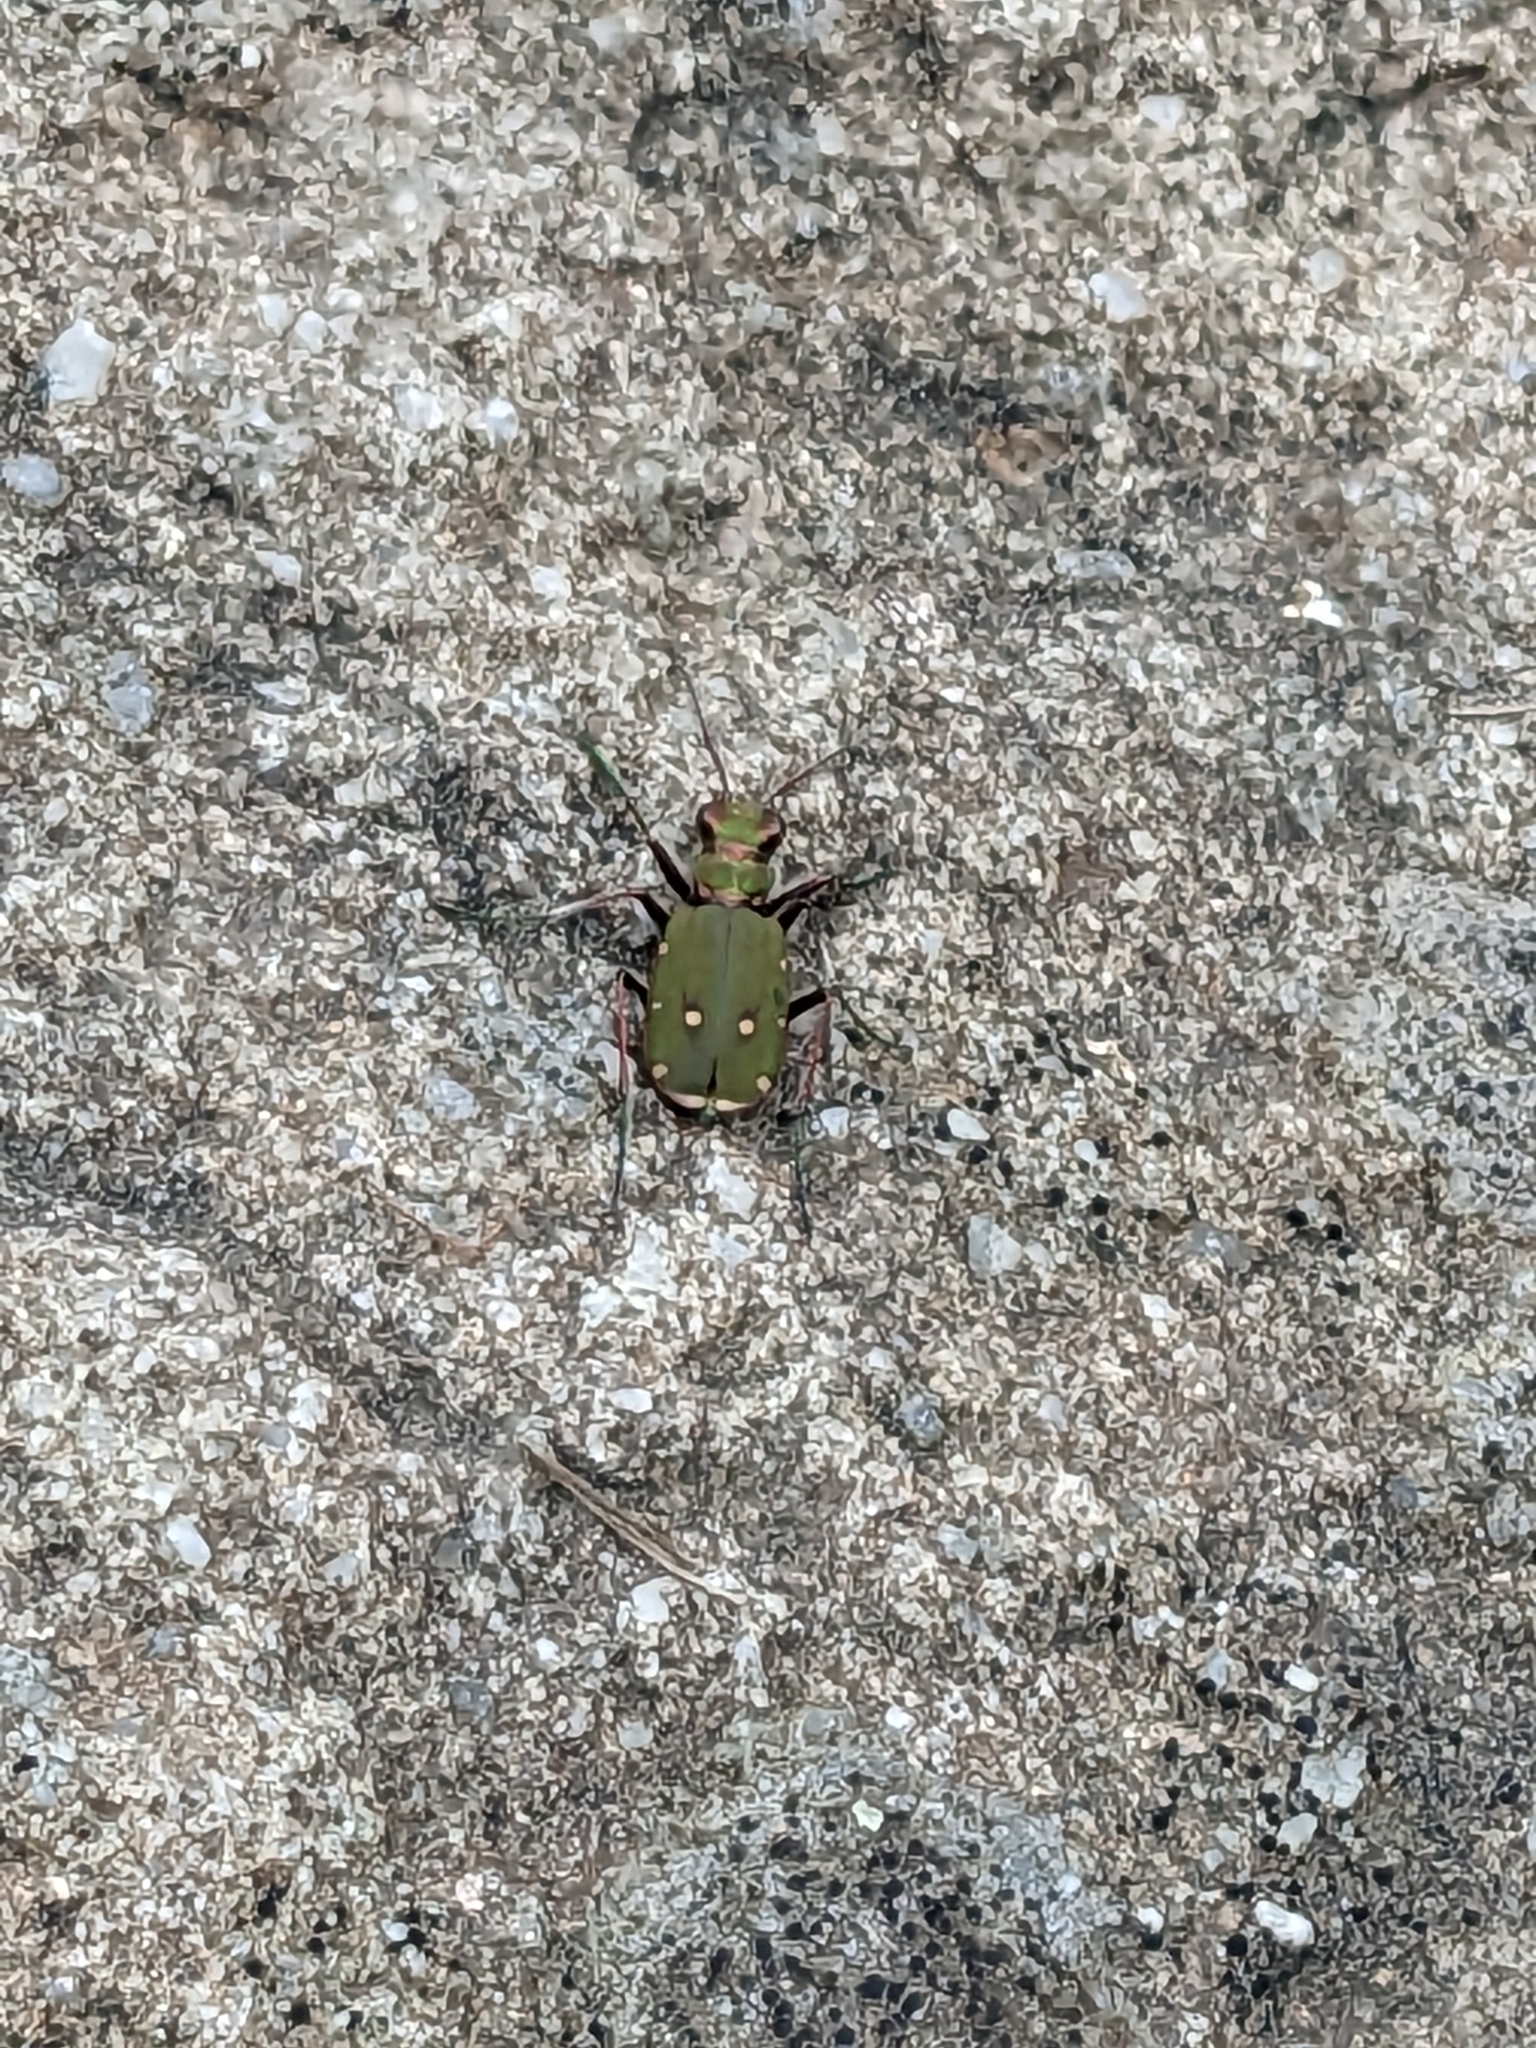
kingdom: Animalia
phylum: Arthropoda
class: Insecta
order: Coleoptera
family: Carabidae
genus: Cicindela
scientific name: Cicindela campestris
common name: Common tiger beetle
